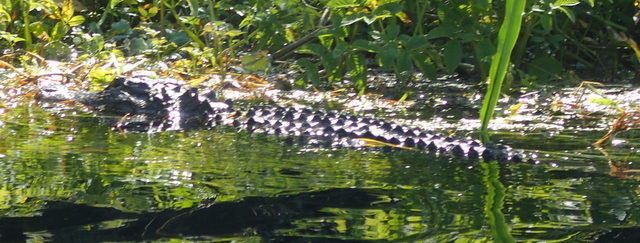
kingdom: Animalia
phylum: Chordata
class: Crocodylia
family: Alligatoridae
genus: Alligator
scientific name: Alligator mississippiensis
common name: American alligator
